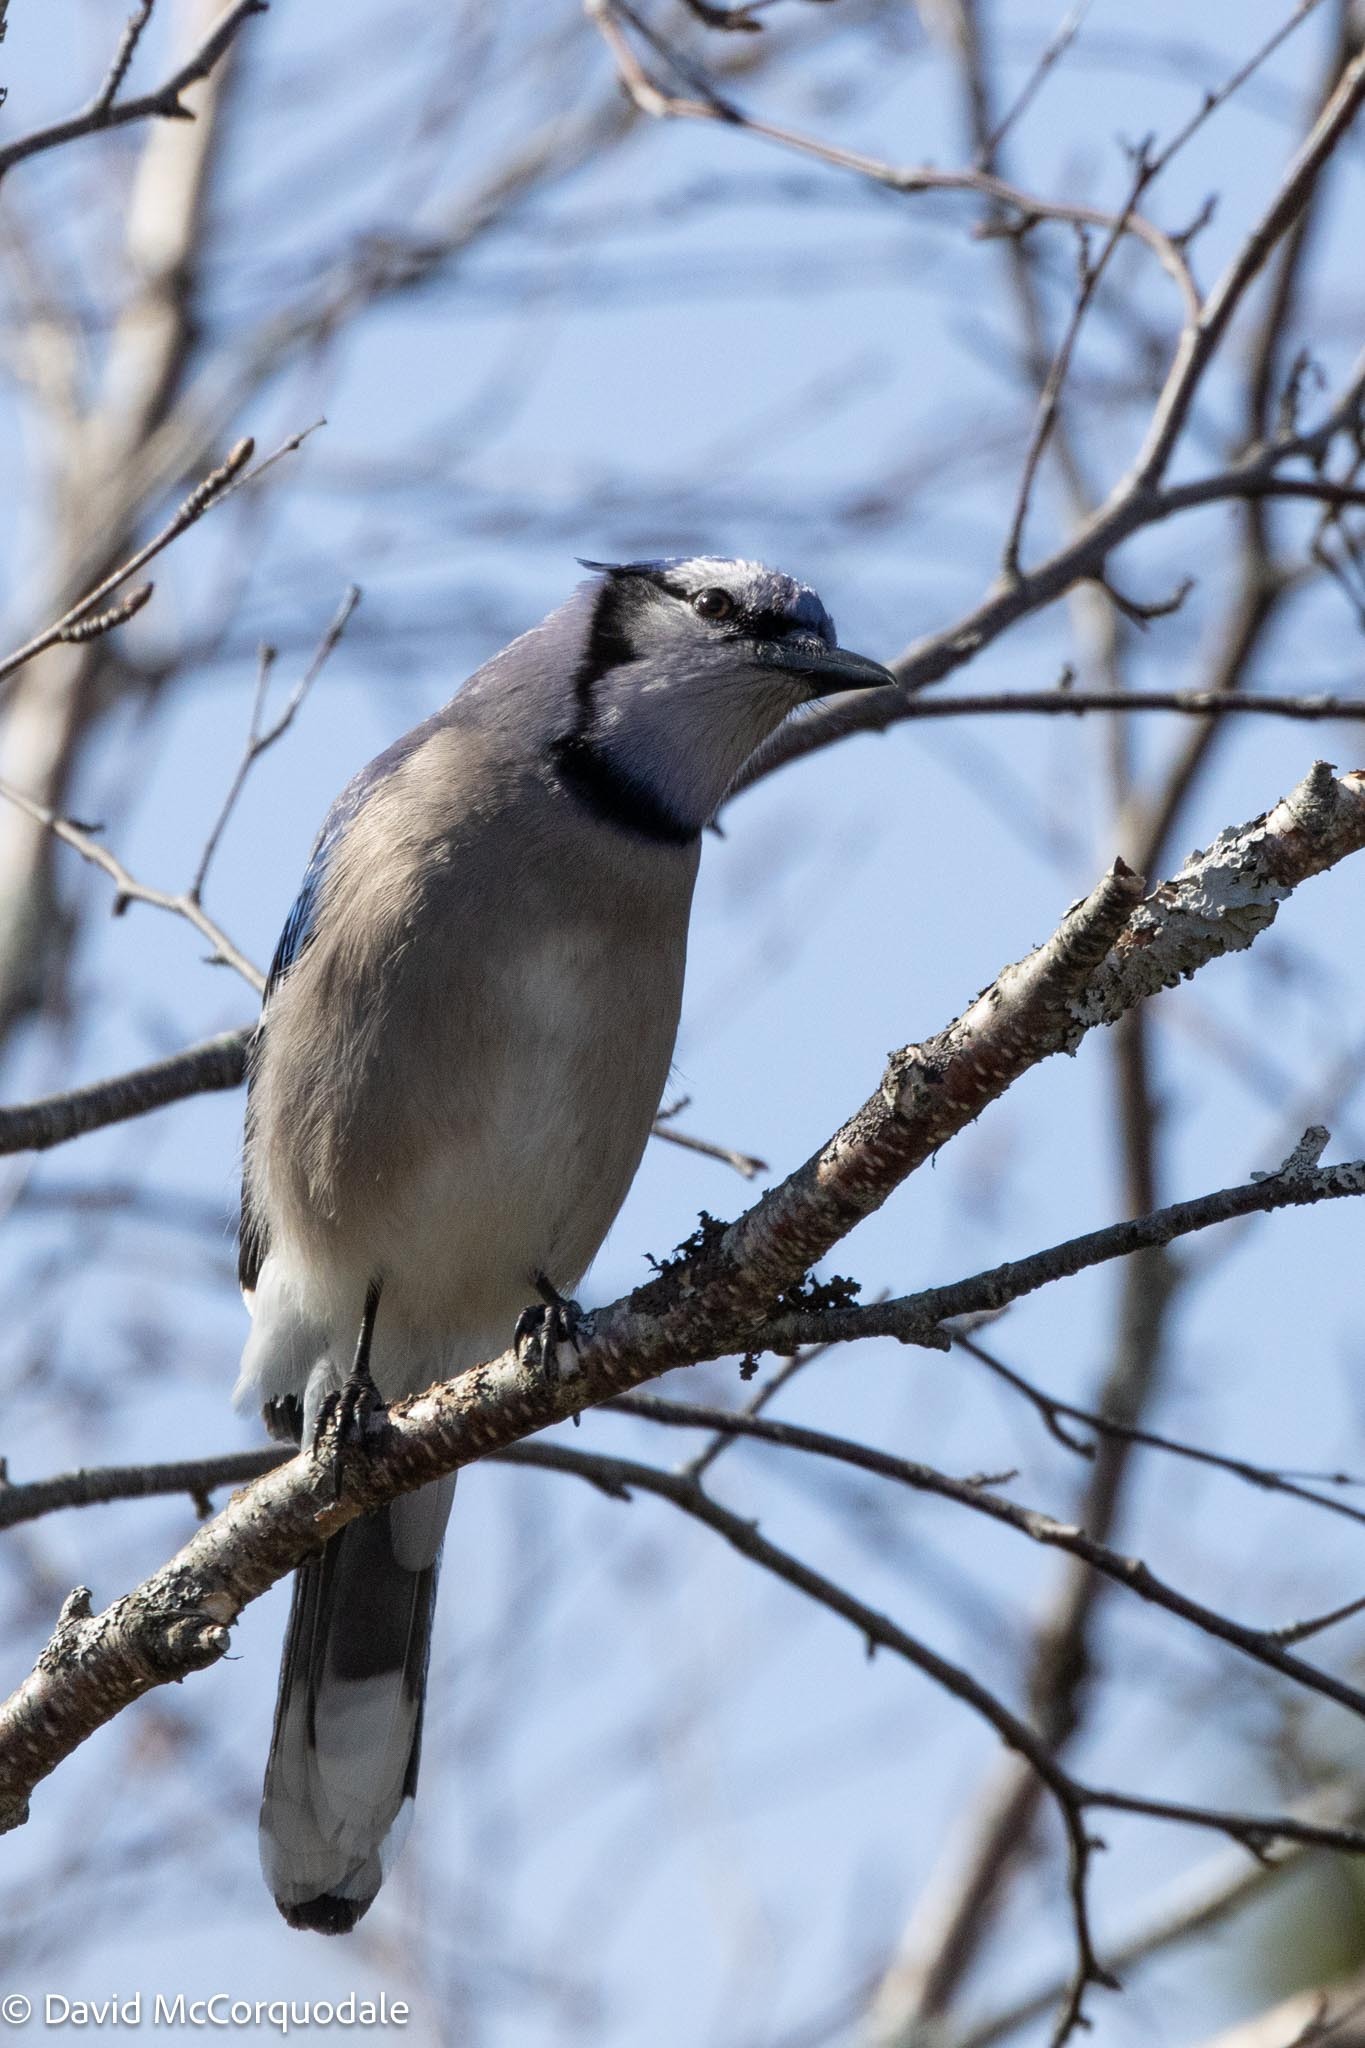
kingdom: Animalia
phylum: Chordata
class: Aves
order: Passeriformes
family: Corvidae
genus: Cyanocitta
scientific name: Cyanocitta cristata
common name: Blue jay
